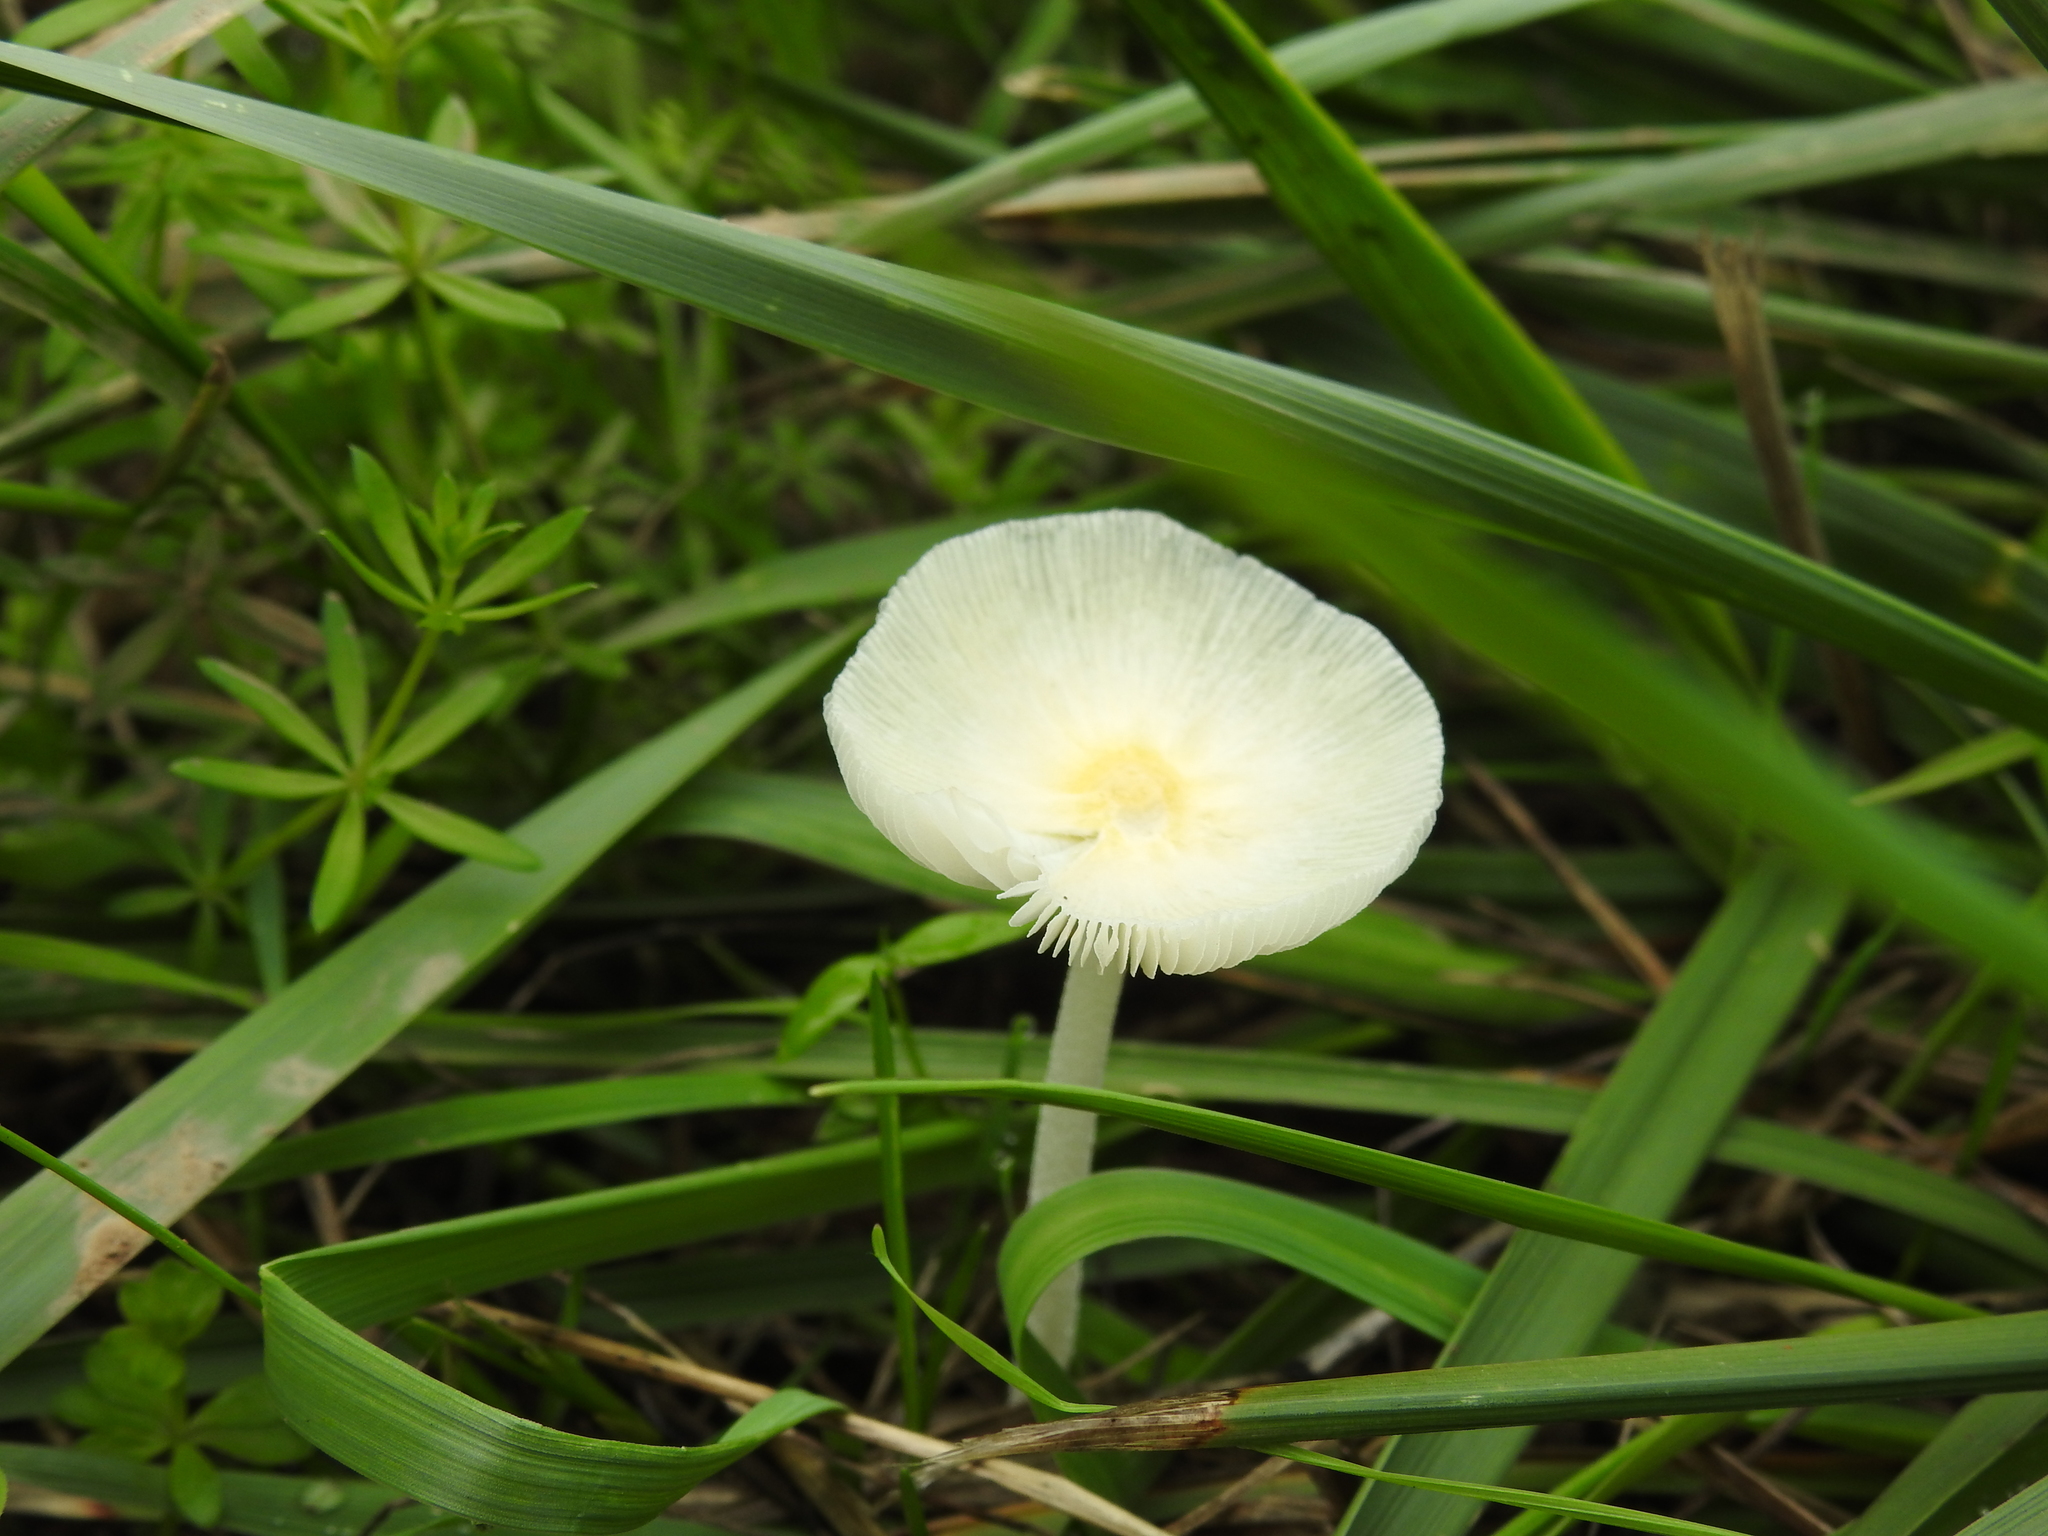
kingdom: Fungi
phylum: Basidiomycota
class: Agaricomycetes
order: Agaricales
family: Bolbitiaceae
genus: Bolbitius
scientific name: Bolbitius titubans
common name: Yellow fieldcap
